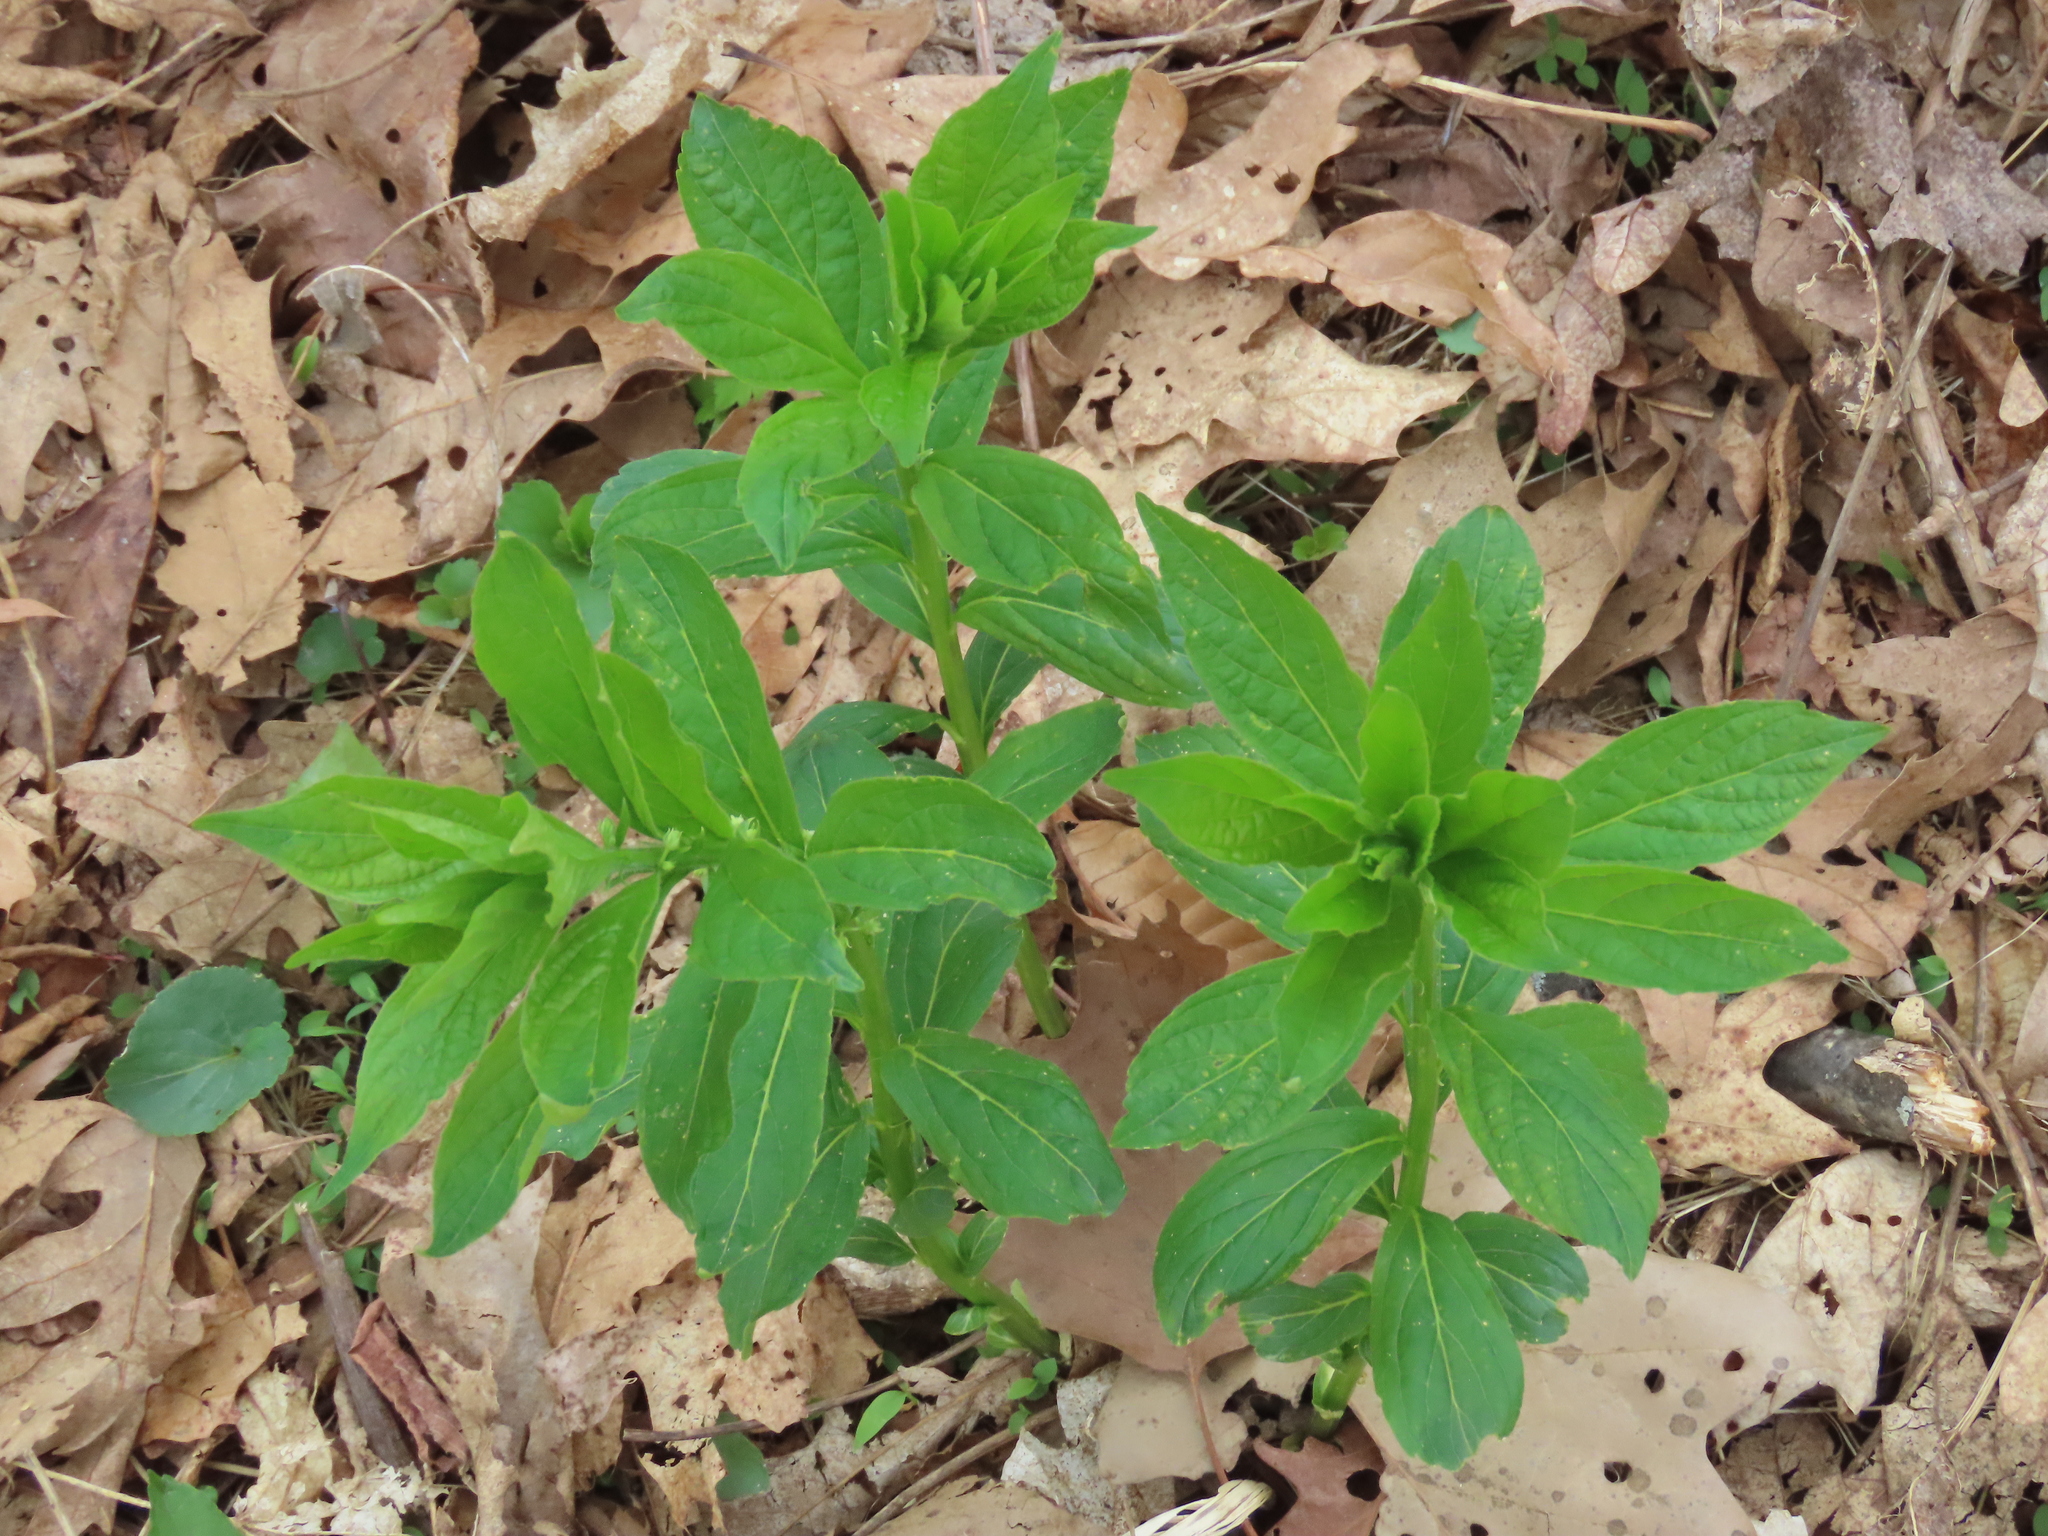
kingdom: Plantae
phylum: Tracheophyta
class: Magnoliopsida
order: Malpighiales
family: Violaceae
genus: Cubelium
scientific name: Cubelium concolor
